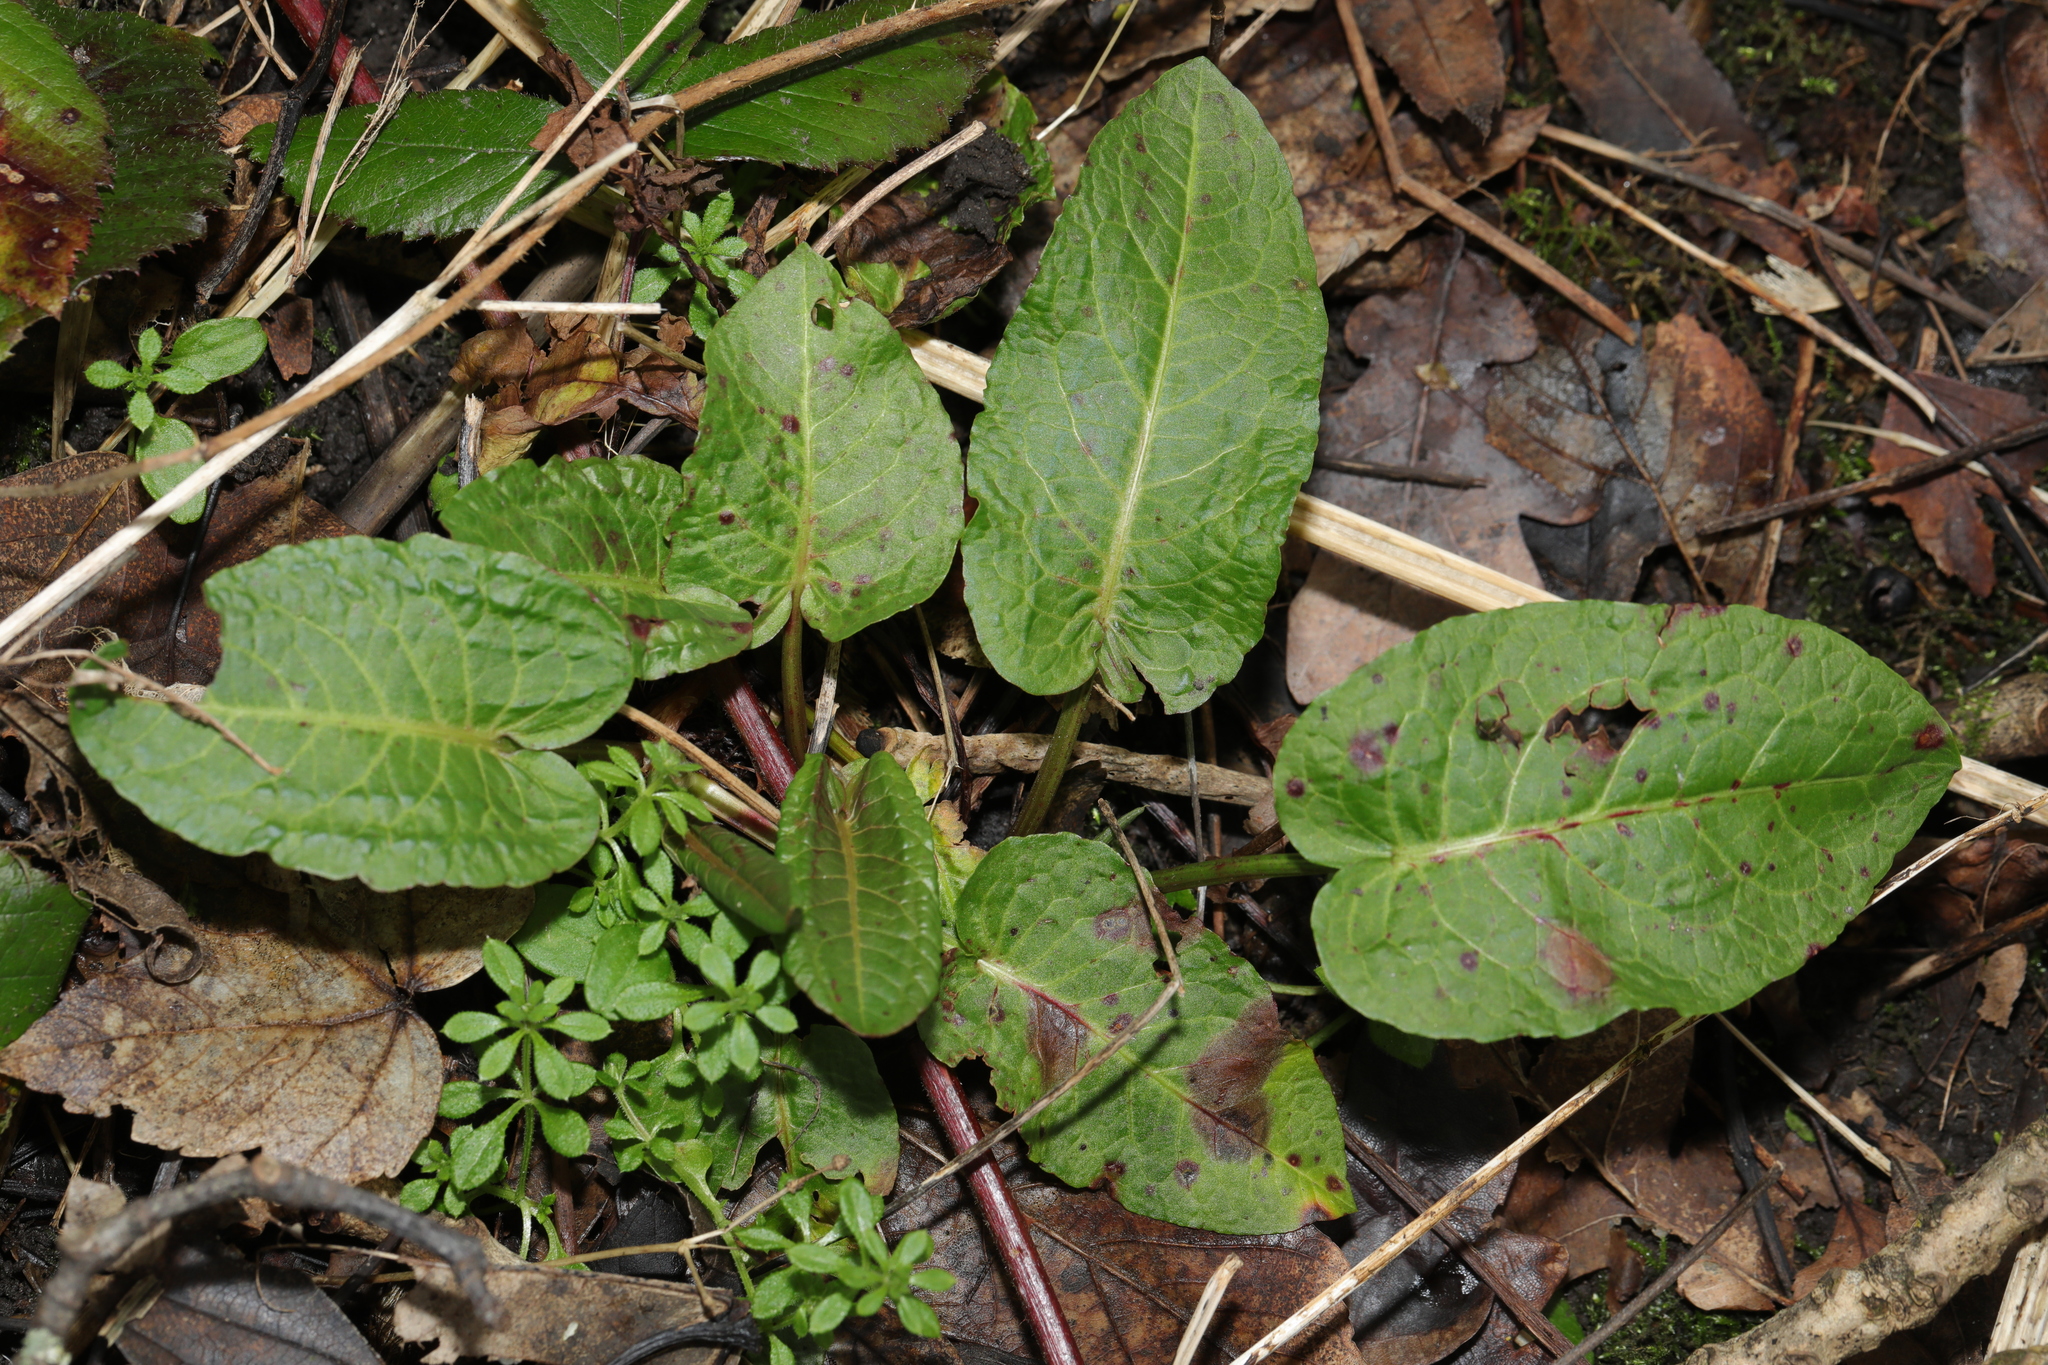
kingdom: Plantae
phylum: Tracheophyta
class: Magnoliopsida
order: Caryophyllales
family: Polygonaceae
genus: Rumex
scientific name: Rumex obtusifolius
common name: Bitter dock
